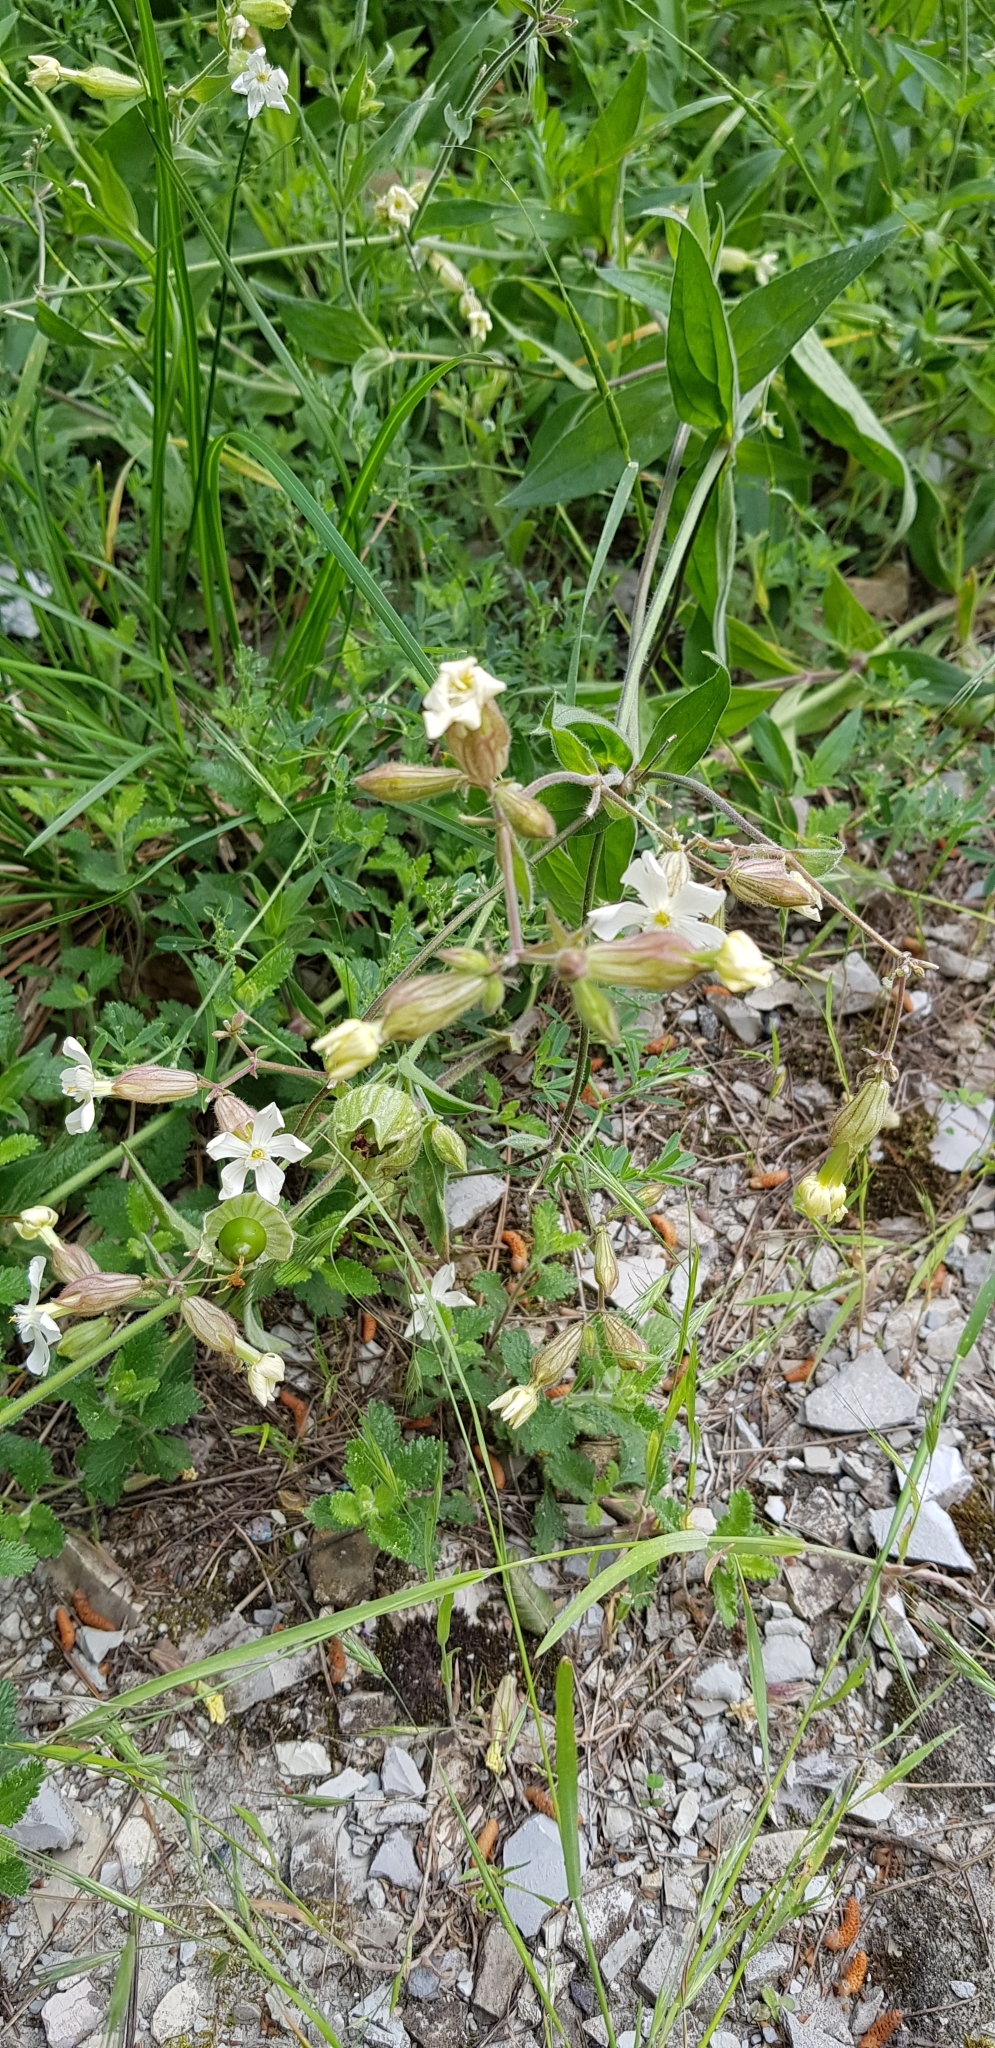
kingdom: Plantae
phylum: Tracheophyta
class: Magnoliopsida
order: Caryophyllales
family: Caryophyllaceae
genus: Silene
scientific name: Silene latifolia
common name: White campion
